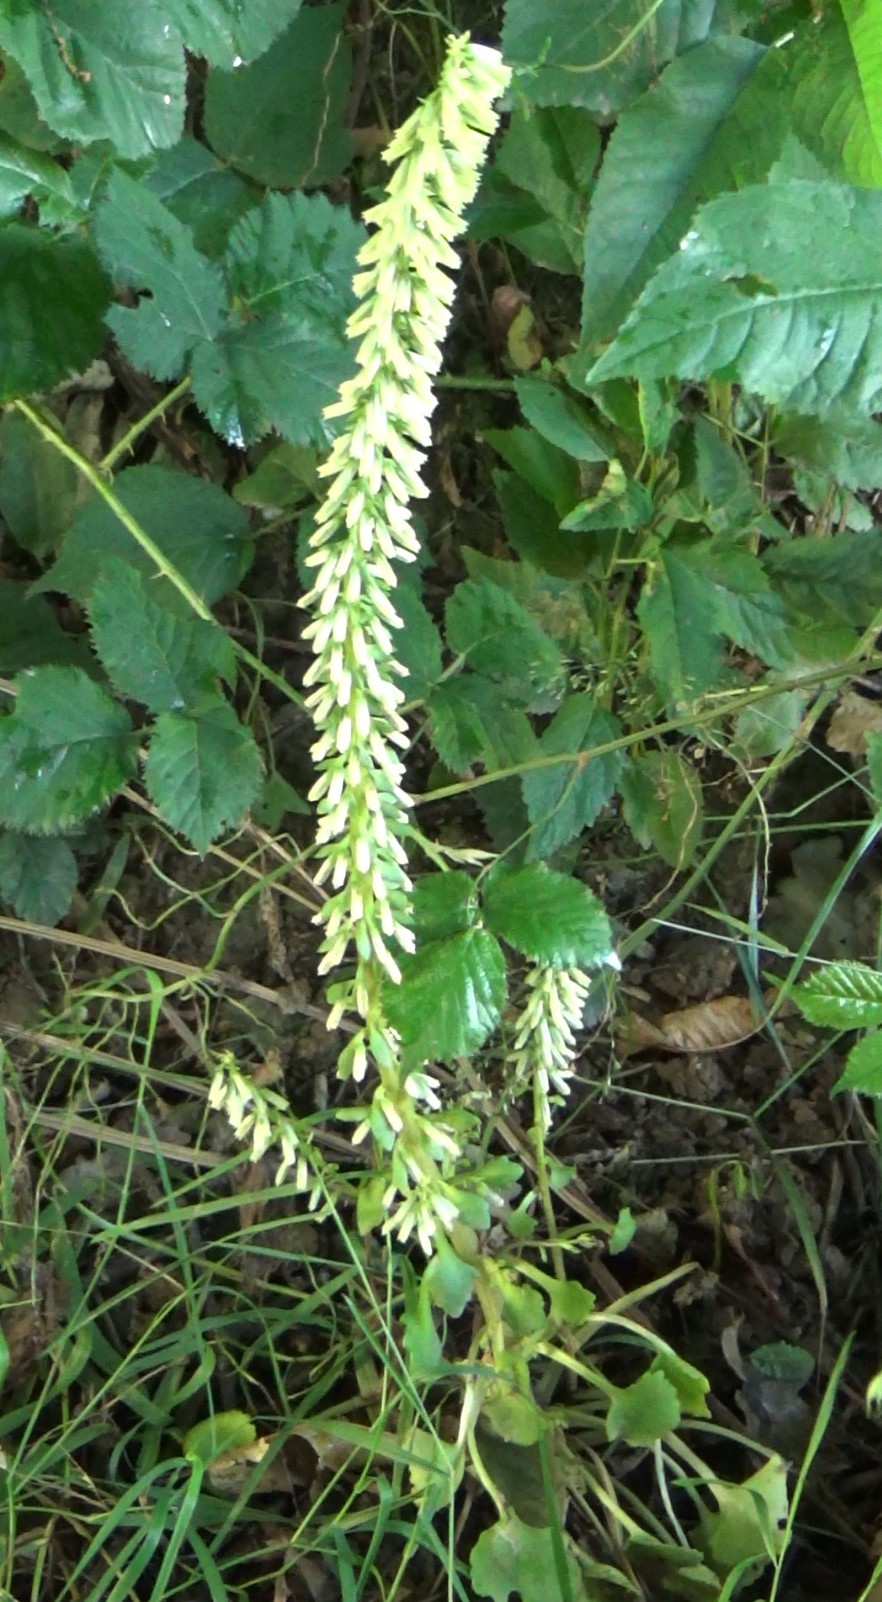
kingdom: Plantae
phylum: Tracheophyta
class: Magnoliopsida
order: Saxifragales
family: Crassulaceae
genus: Umbilicus
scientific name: Umbilicus rupestris
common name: Navelwort
